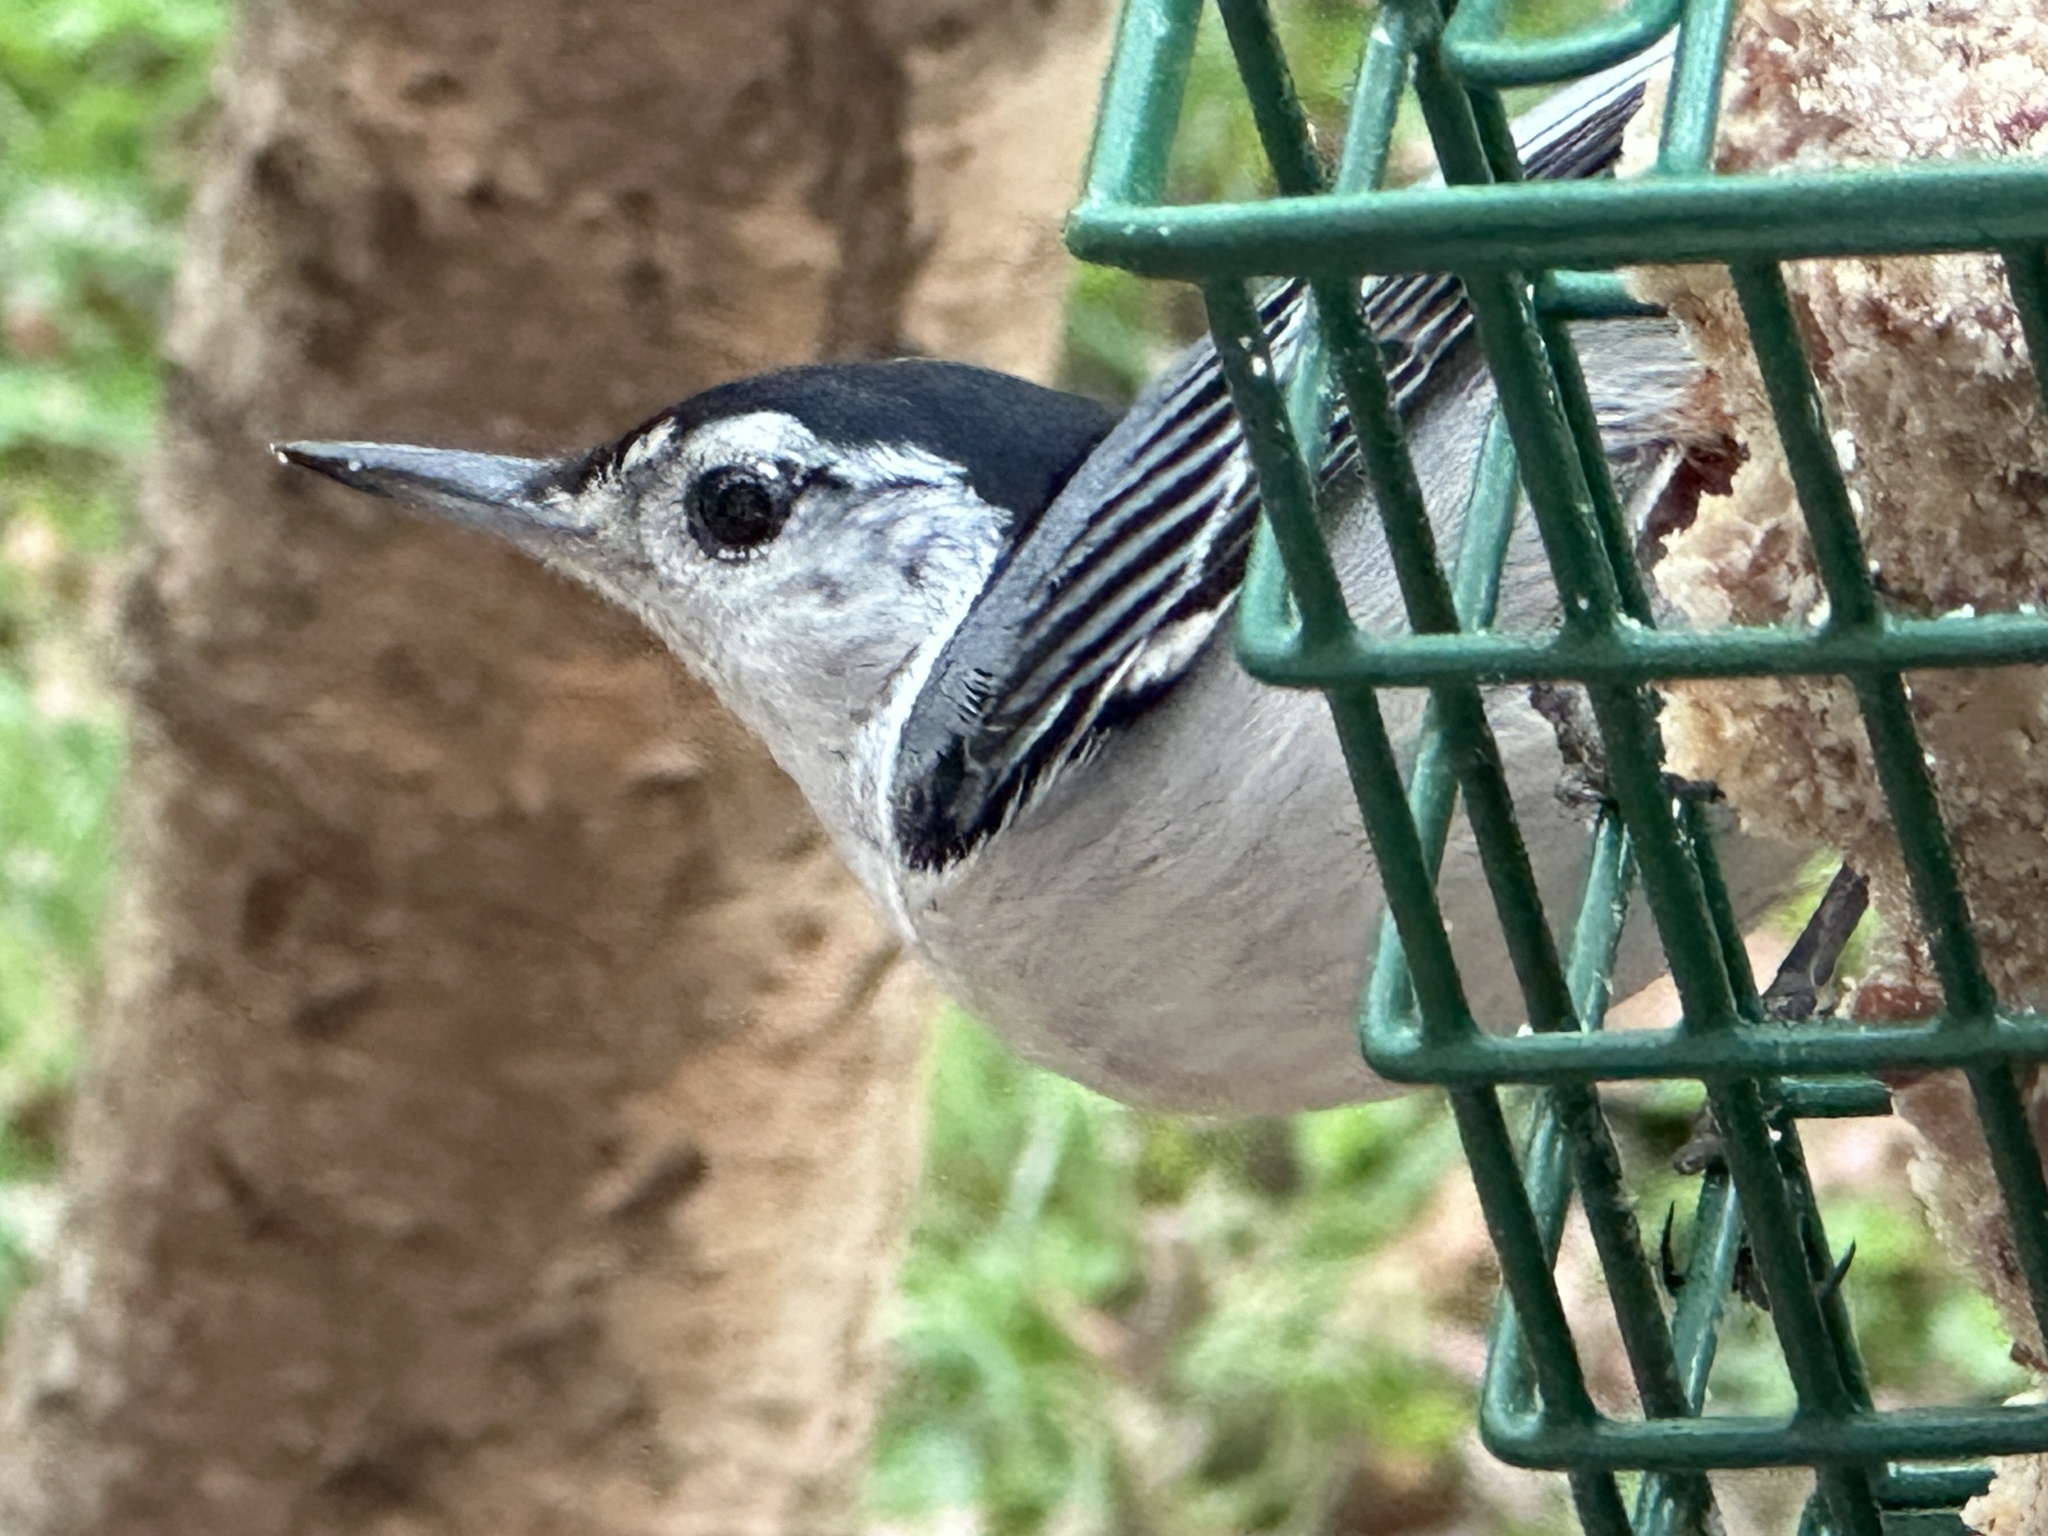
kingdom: Animalia
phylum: Chordata
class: Aves
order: Passeriformes
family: Sittidae
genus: Sitta
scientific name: Sitta carolinensis
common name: White-breasted nuthatch
